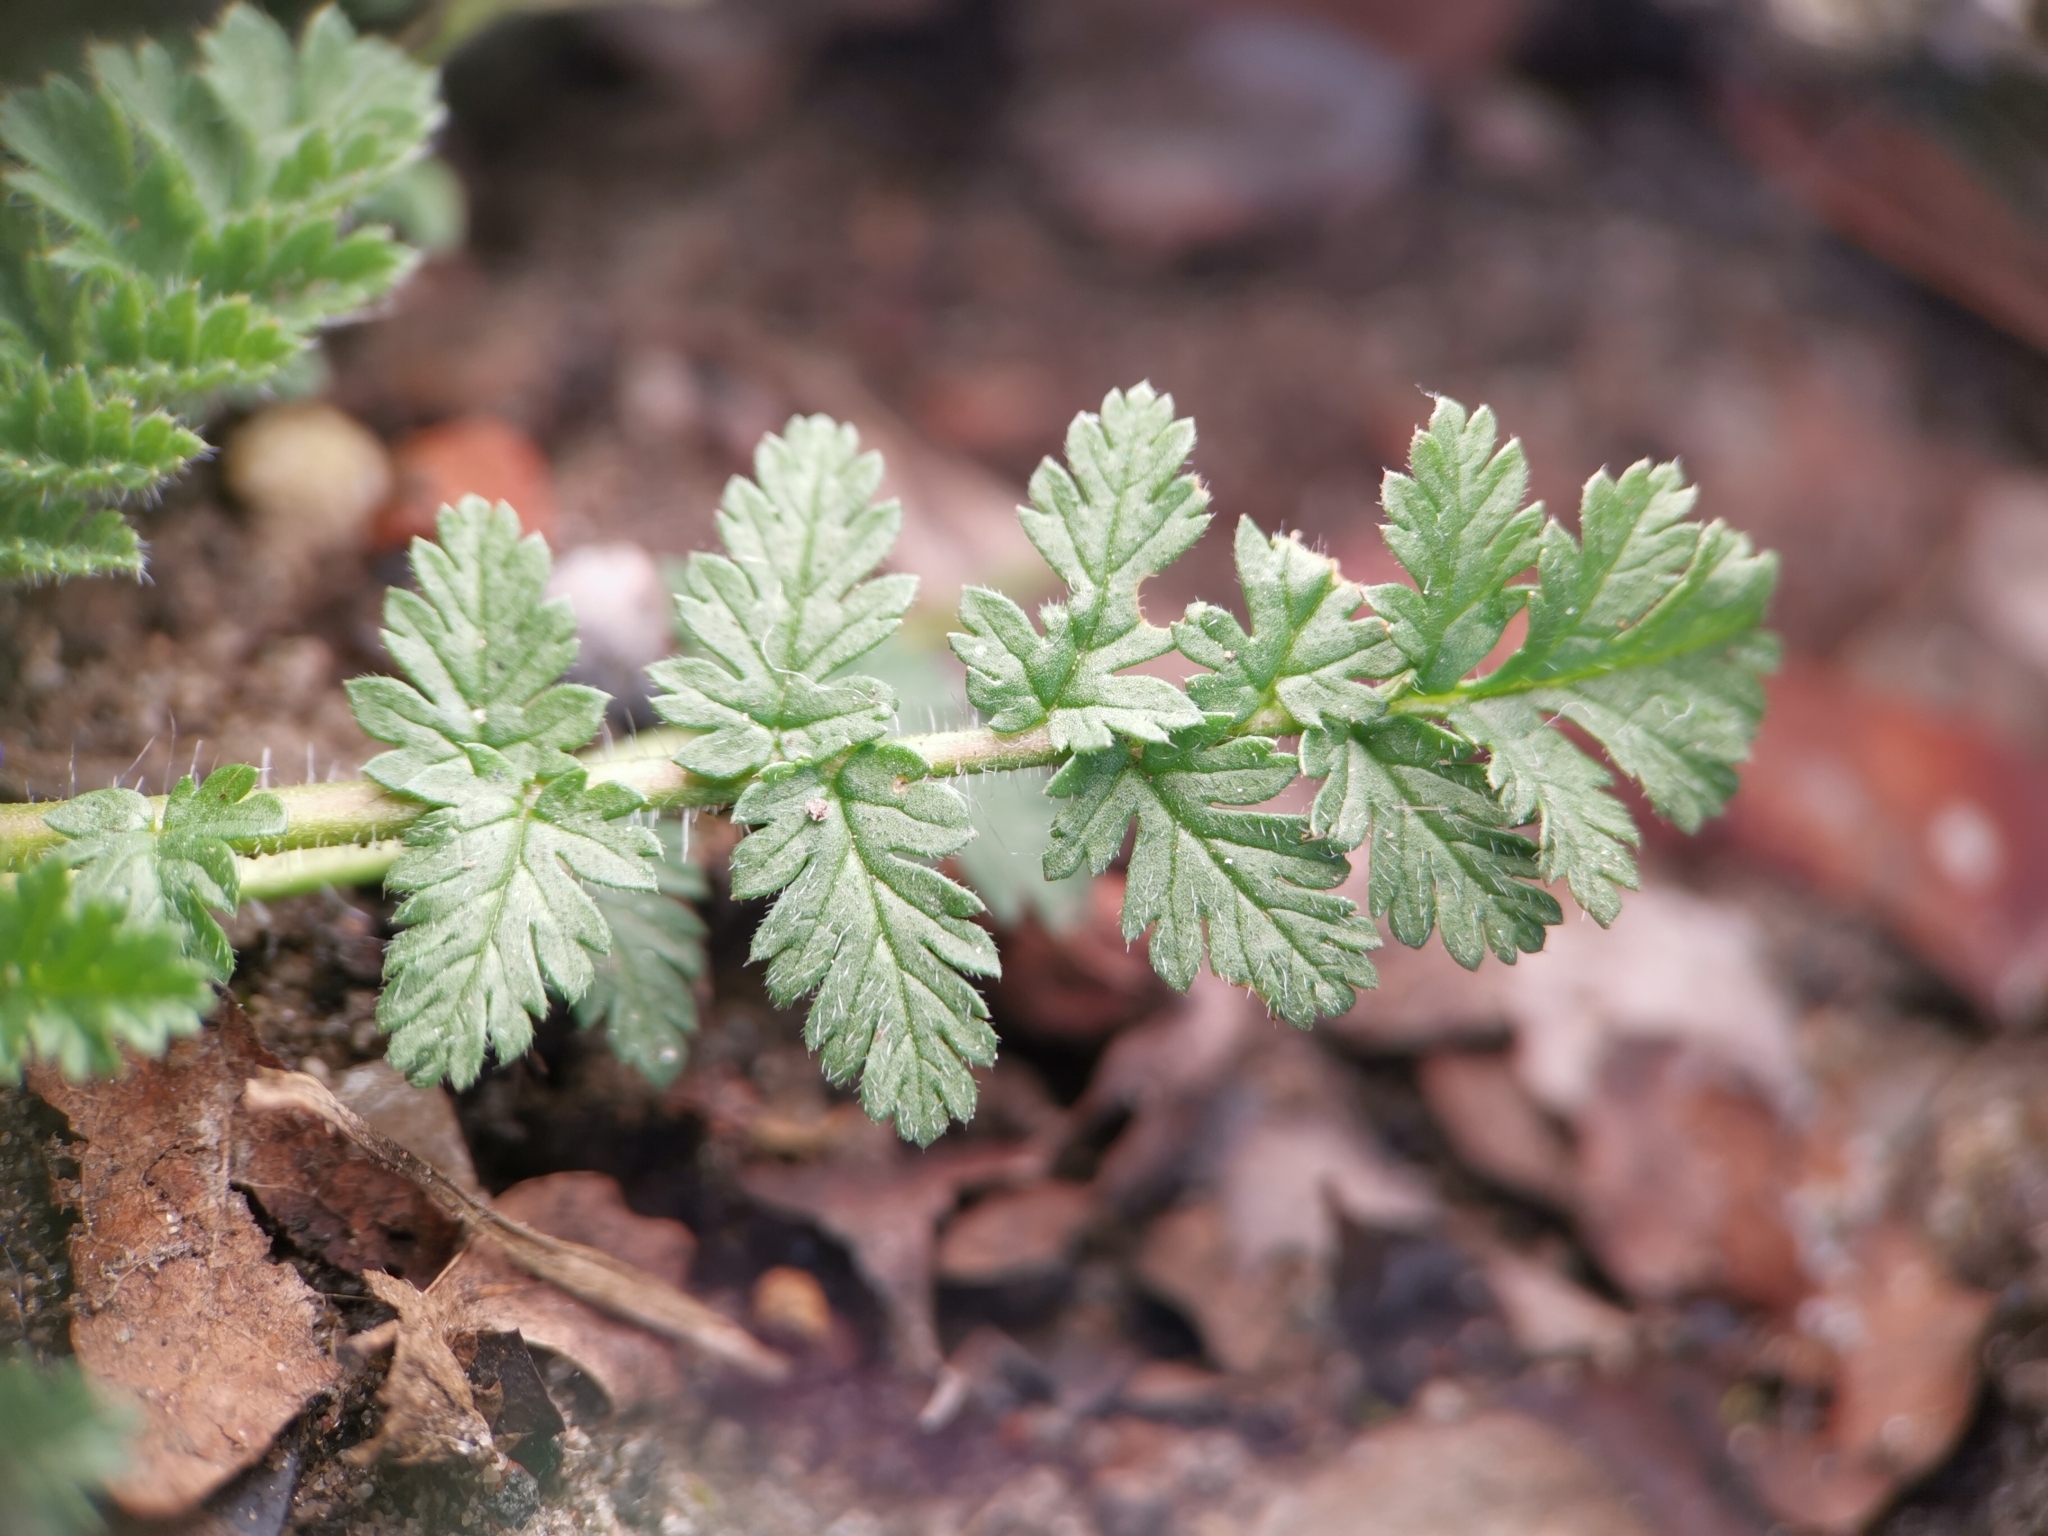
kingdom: Plantae
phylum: Tracheophyta
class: Magnoliopsida
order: Geraniales
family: Geraniaceae
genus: Erodium
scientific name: Erodium cicutarium
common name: Common stork's-bill
